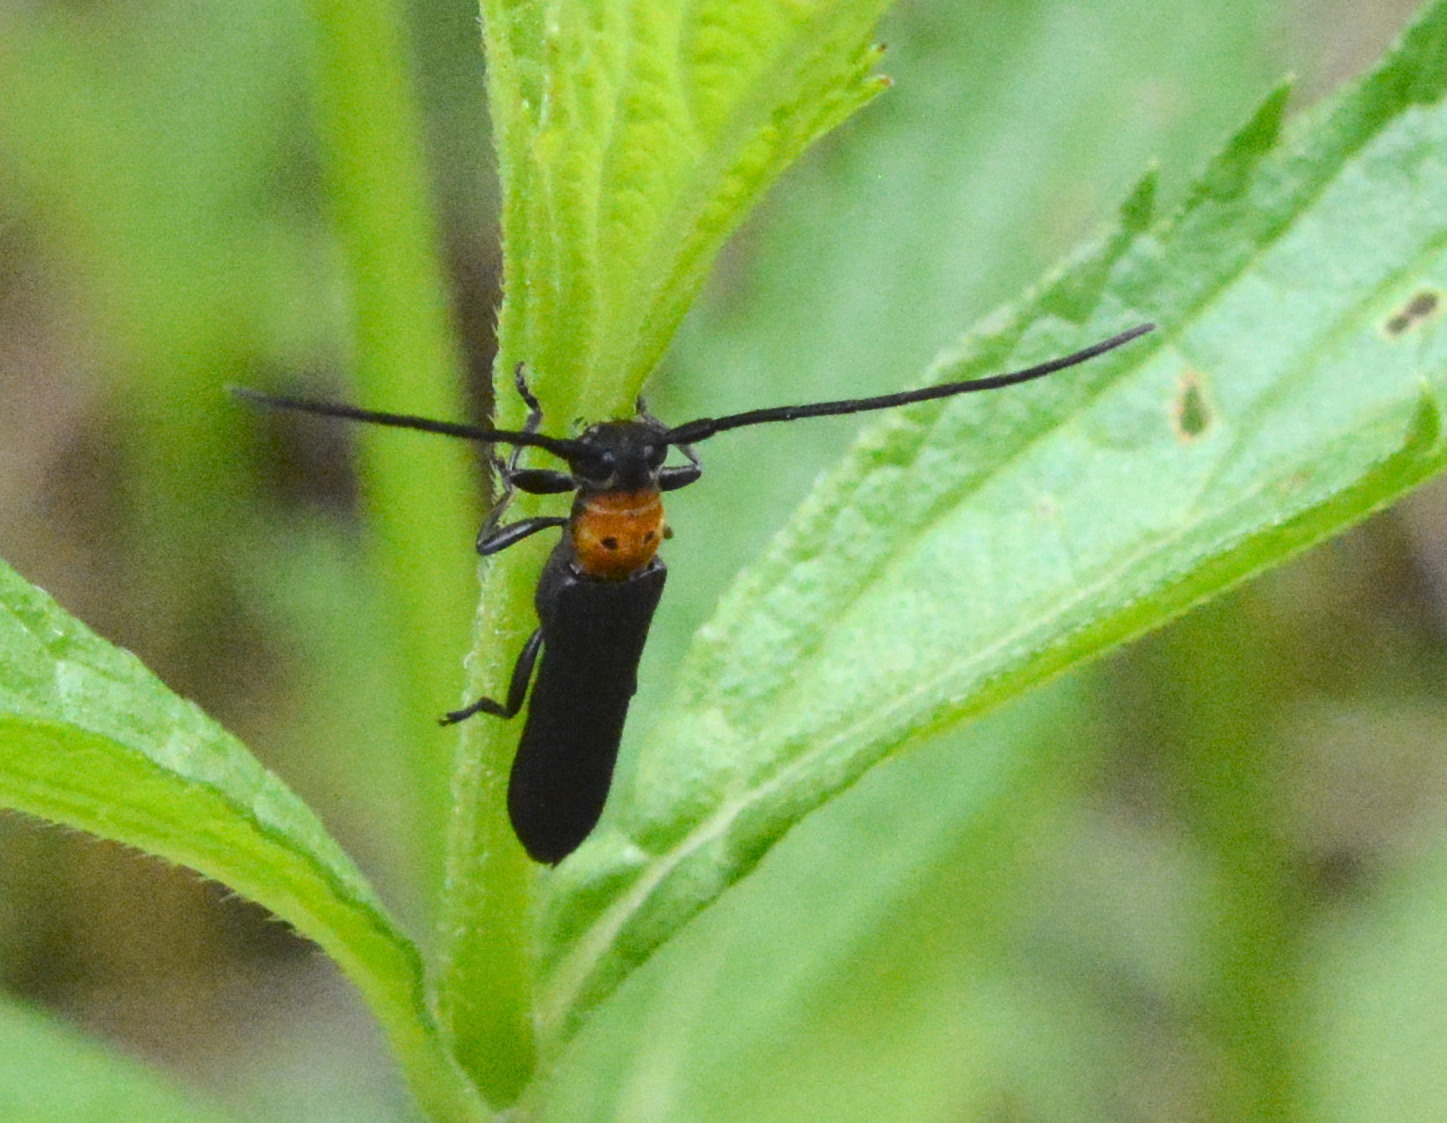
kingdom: Animalia
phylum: Arthropoda
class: Insecta
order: Coleoptera
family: Cerambycidae
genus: Oberea
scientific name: Oberea perspicillata
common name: Raspberry cane borer
